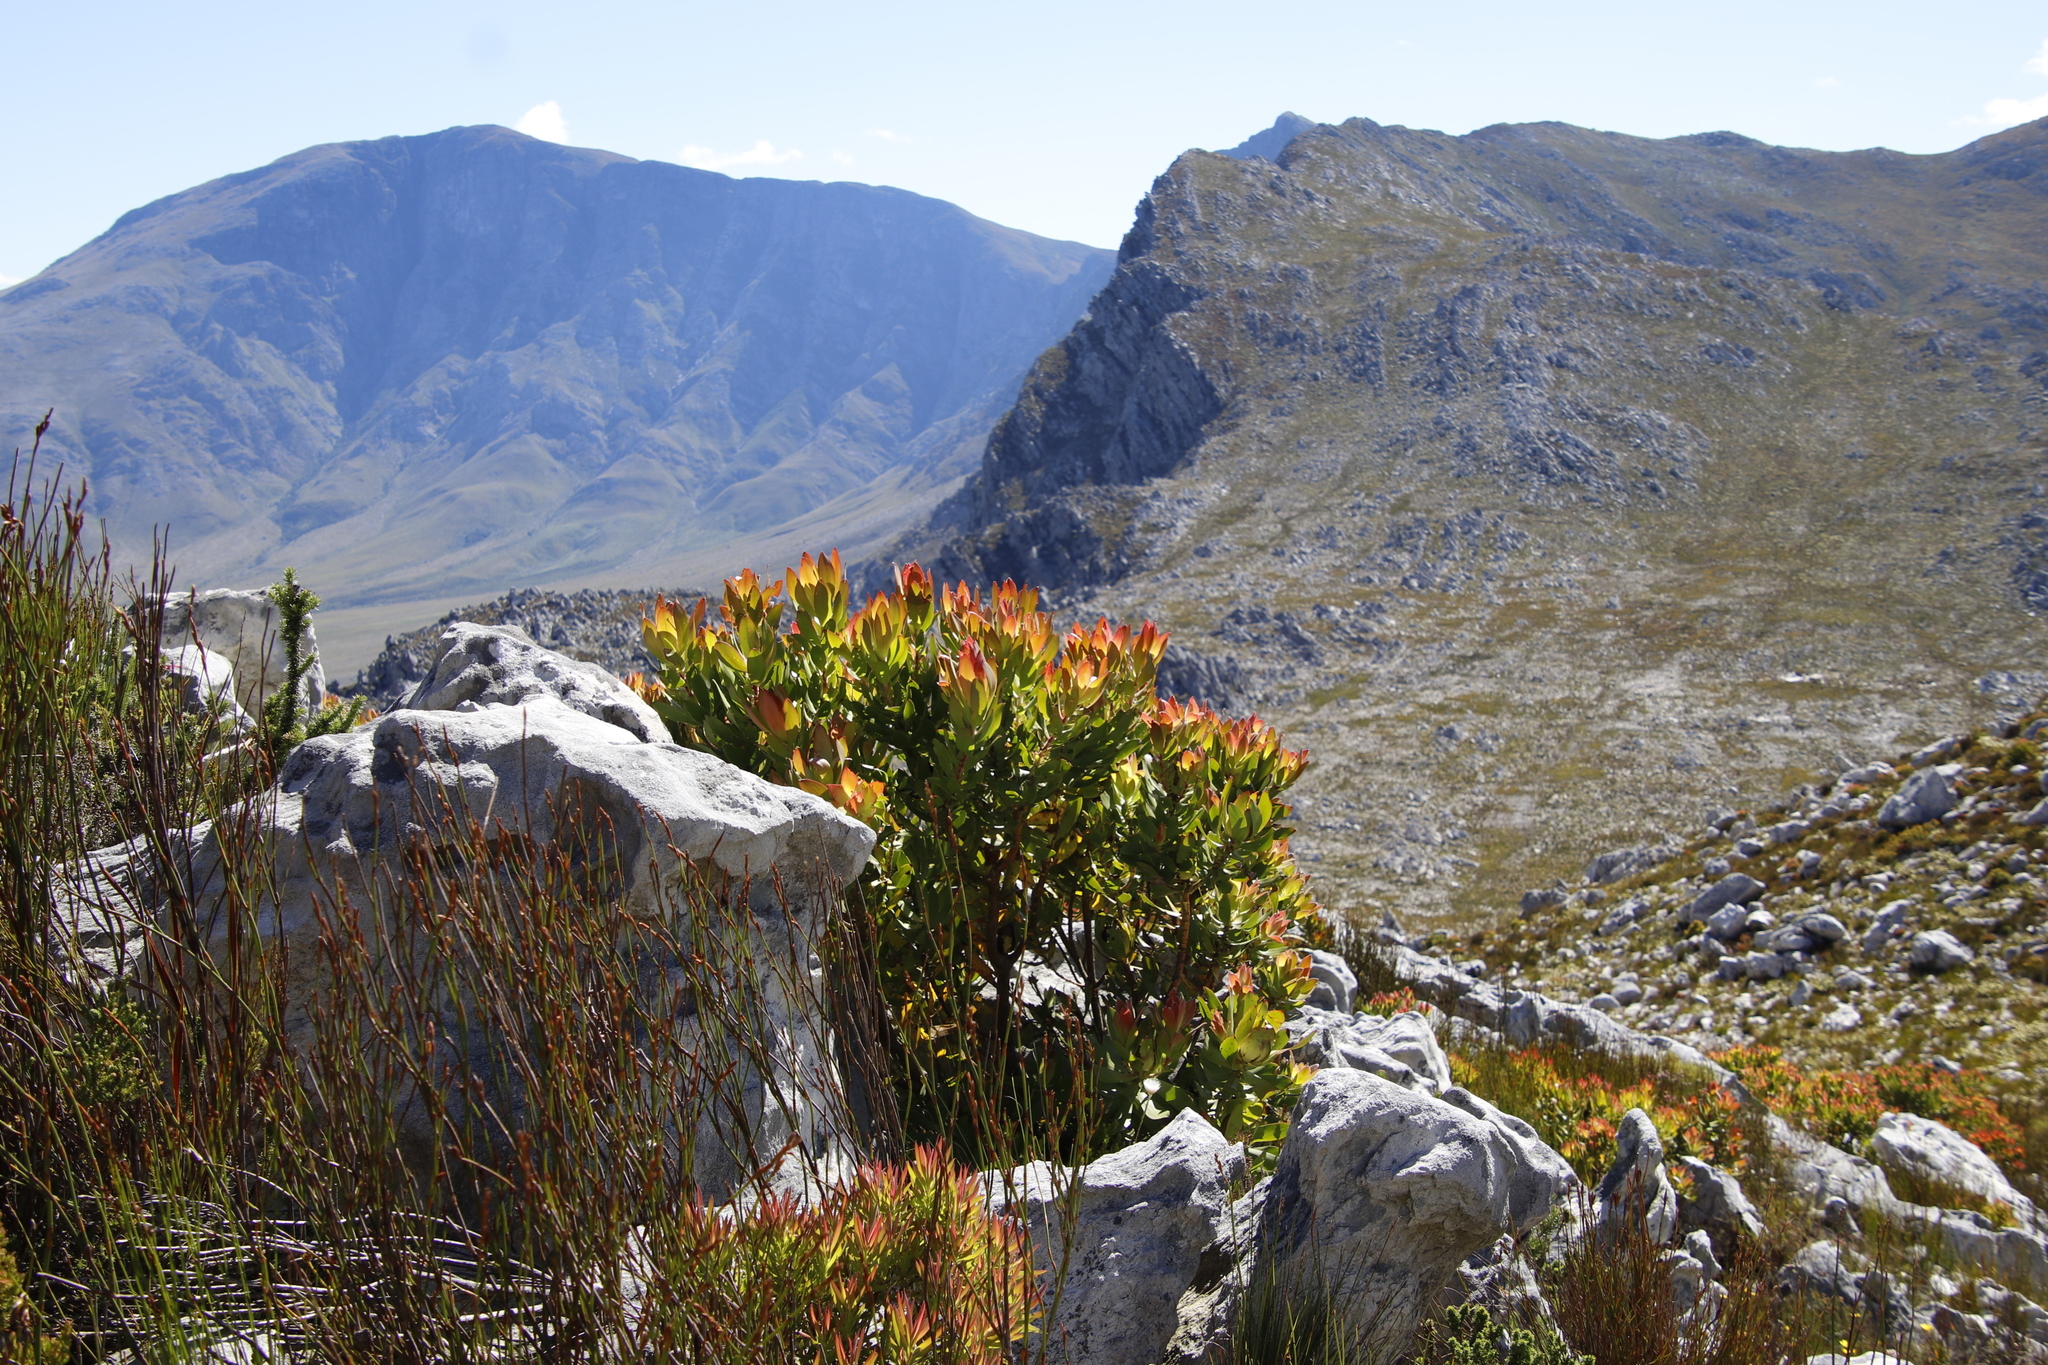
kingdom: Plantae
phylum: Tracheophyta
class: Magnoliopsida
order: Proteales
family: Proteaceae
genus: Leucadendron
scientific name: Leucadendron gandogeri
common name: Broad-leaf conebush
